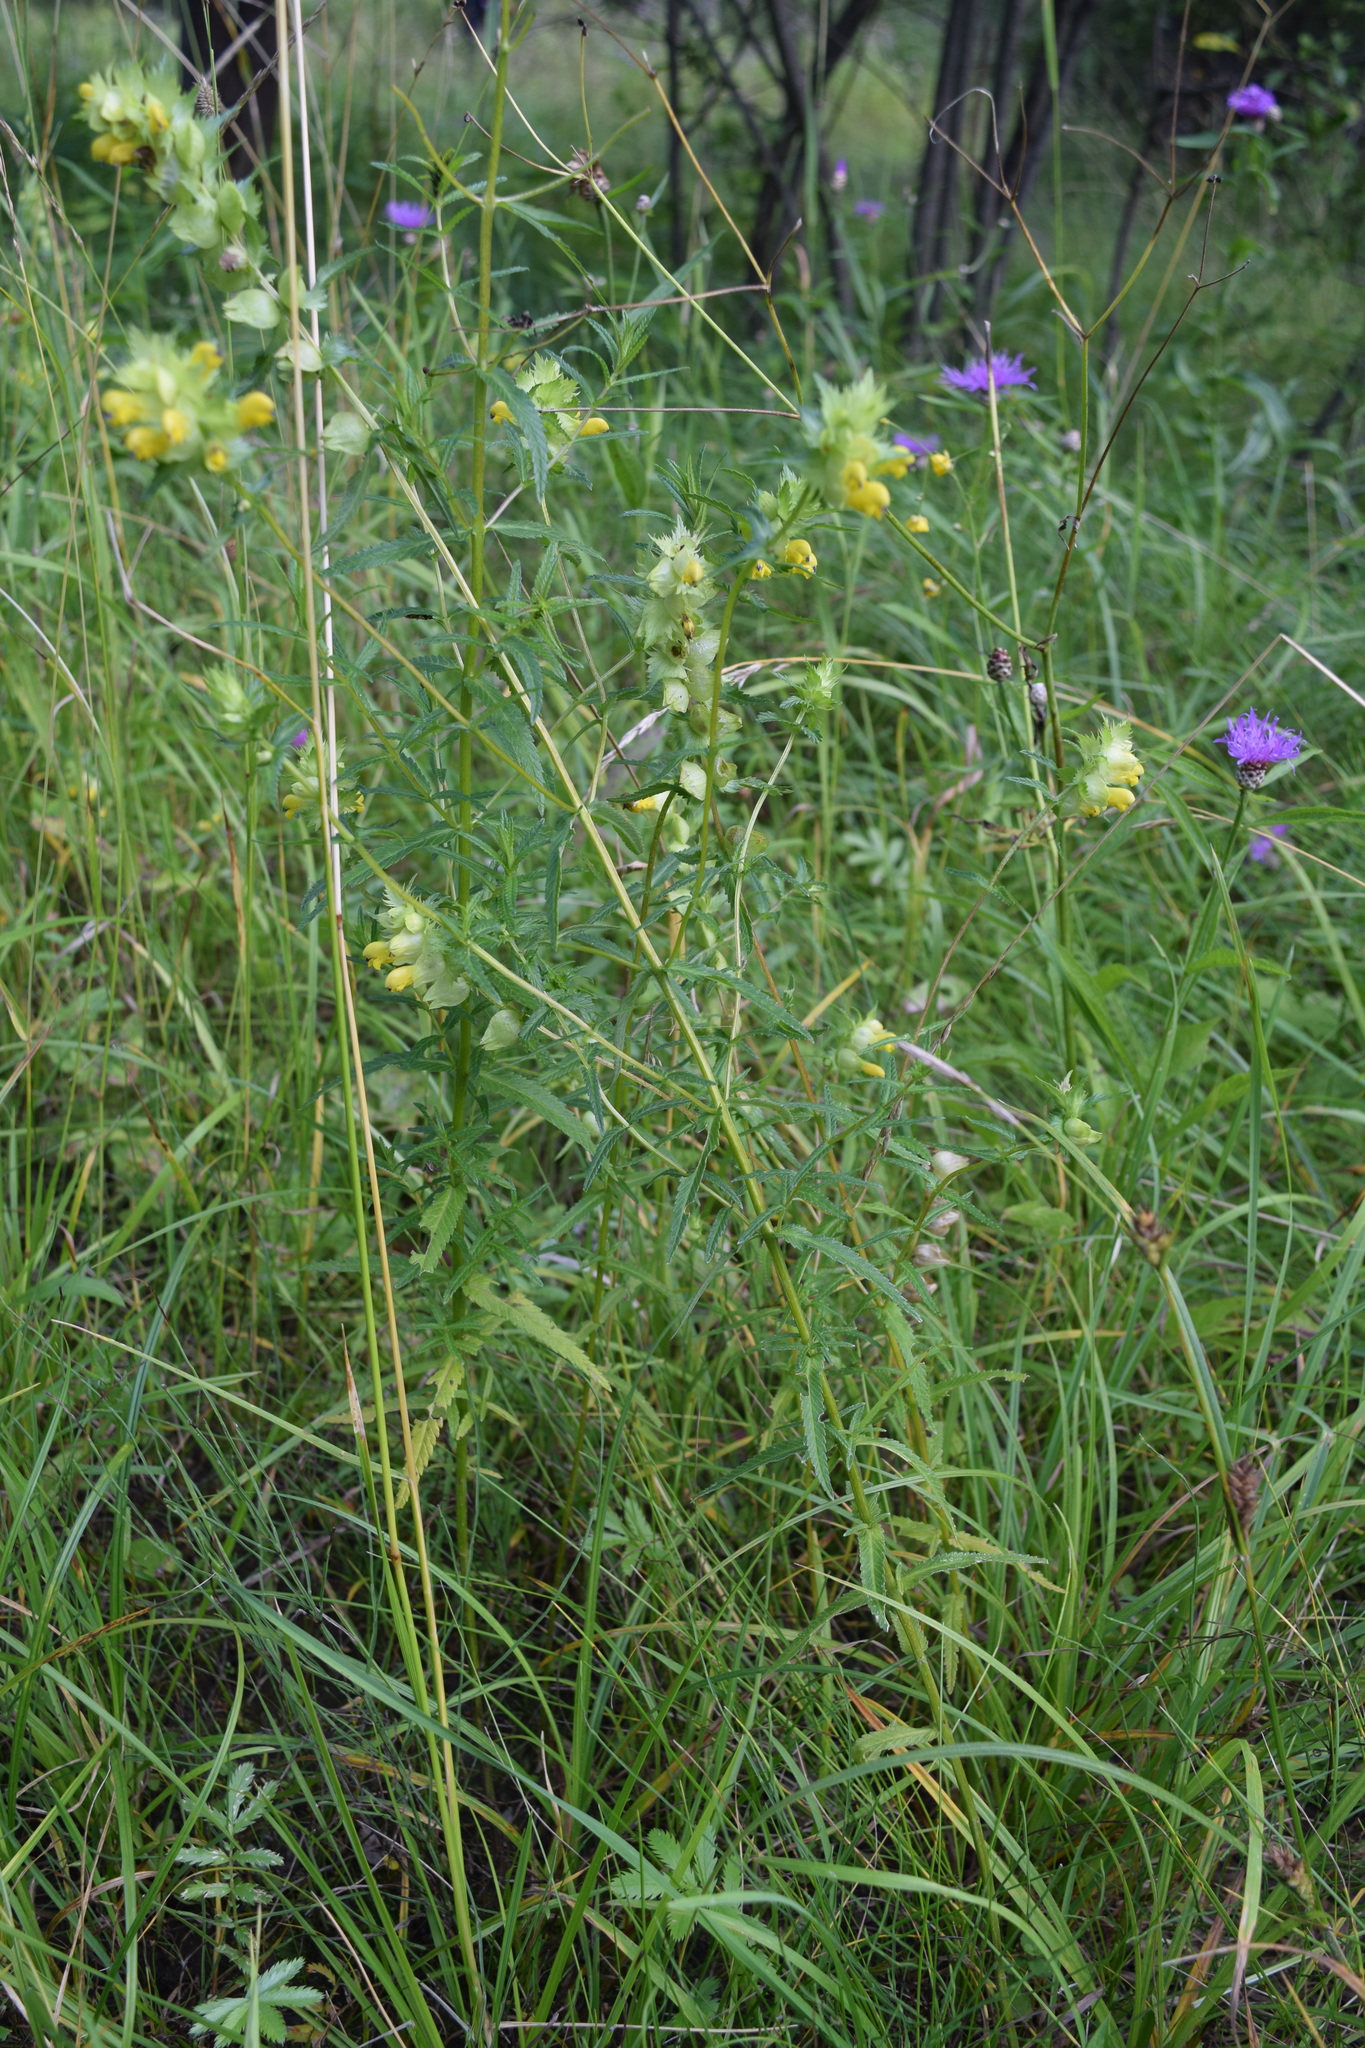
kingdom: Plantae
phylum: Tracheophyta
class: Magnoliopsida
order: Lamiales
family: Orobanchaceae
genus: Rhinanthus
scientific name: Rhinanthus minor
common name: Yellow-rattle
